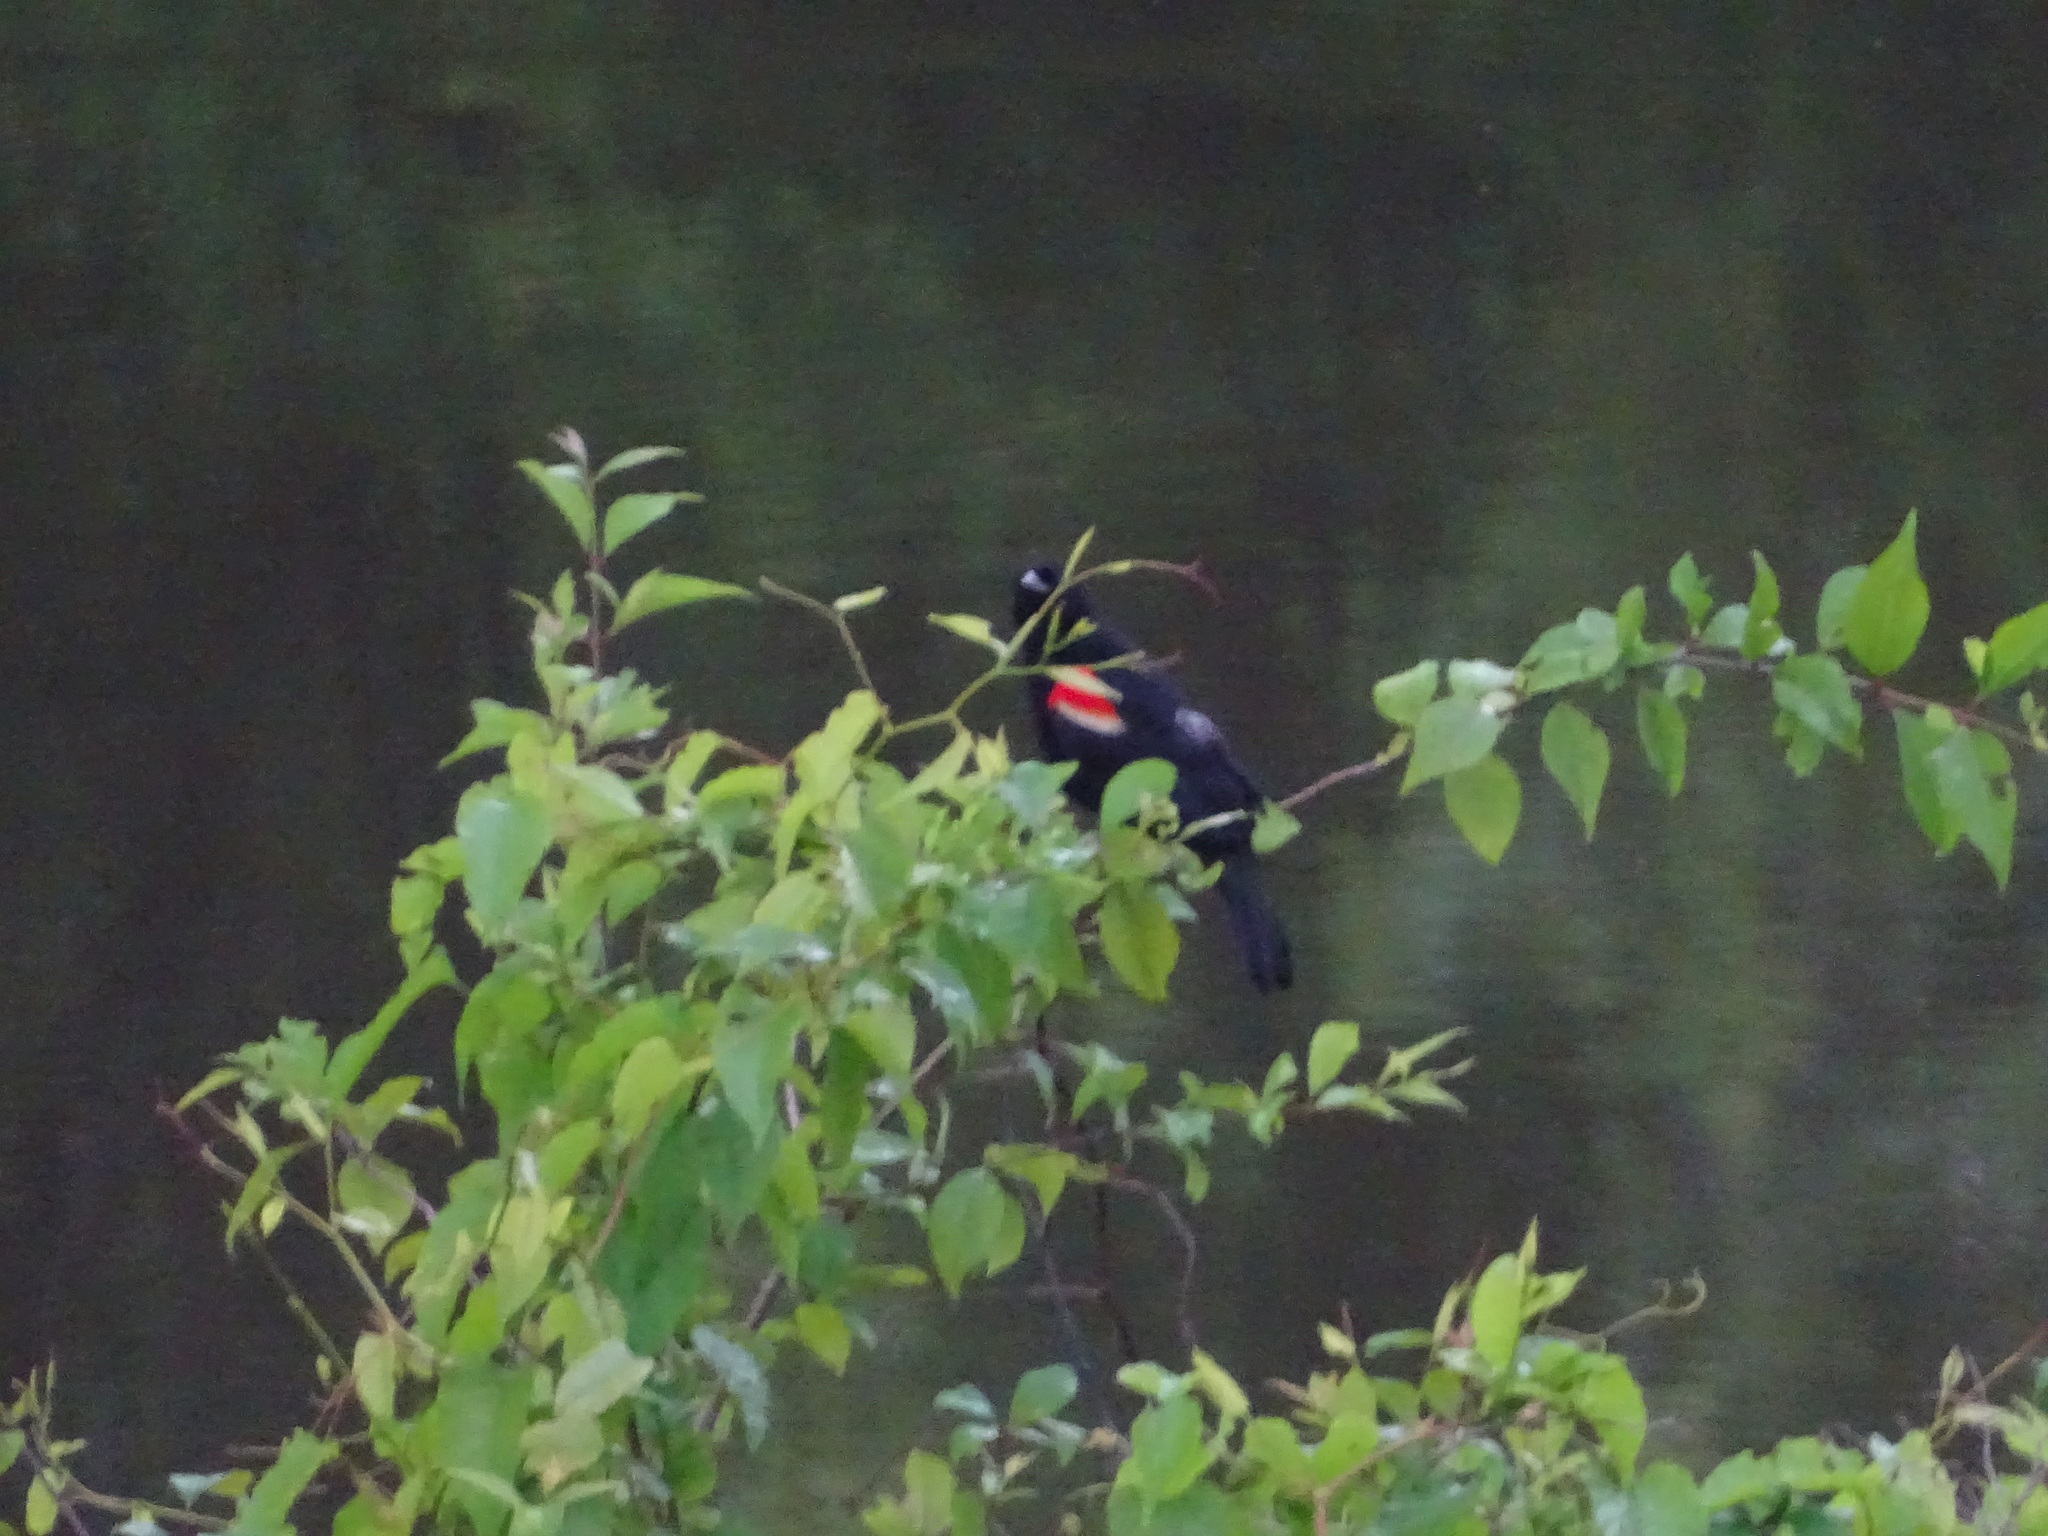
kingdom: Animalia
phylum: Chordata
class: Aves
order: Passeriformes
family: Icteridae
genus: Agelaius
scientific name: Agelaius phoeniceus
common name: Red-winged blackbird
